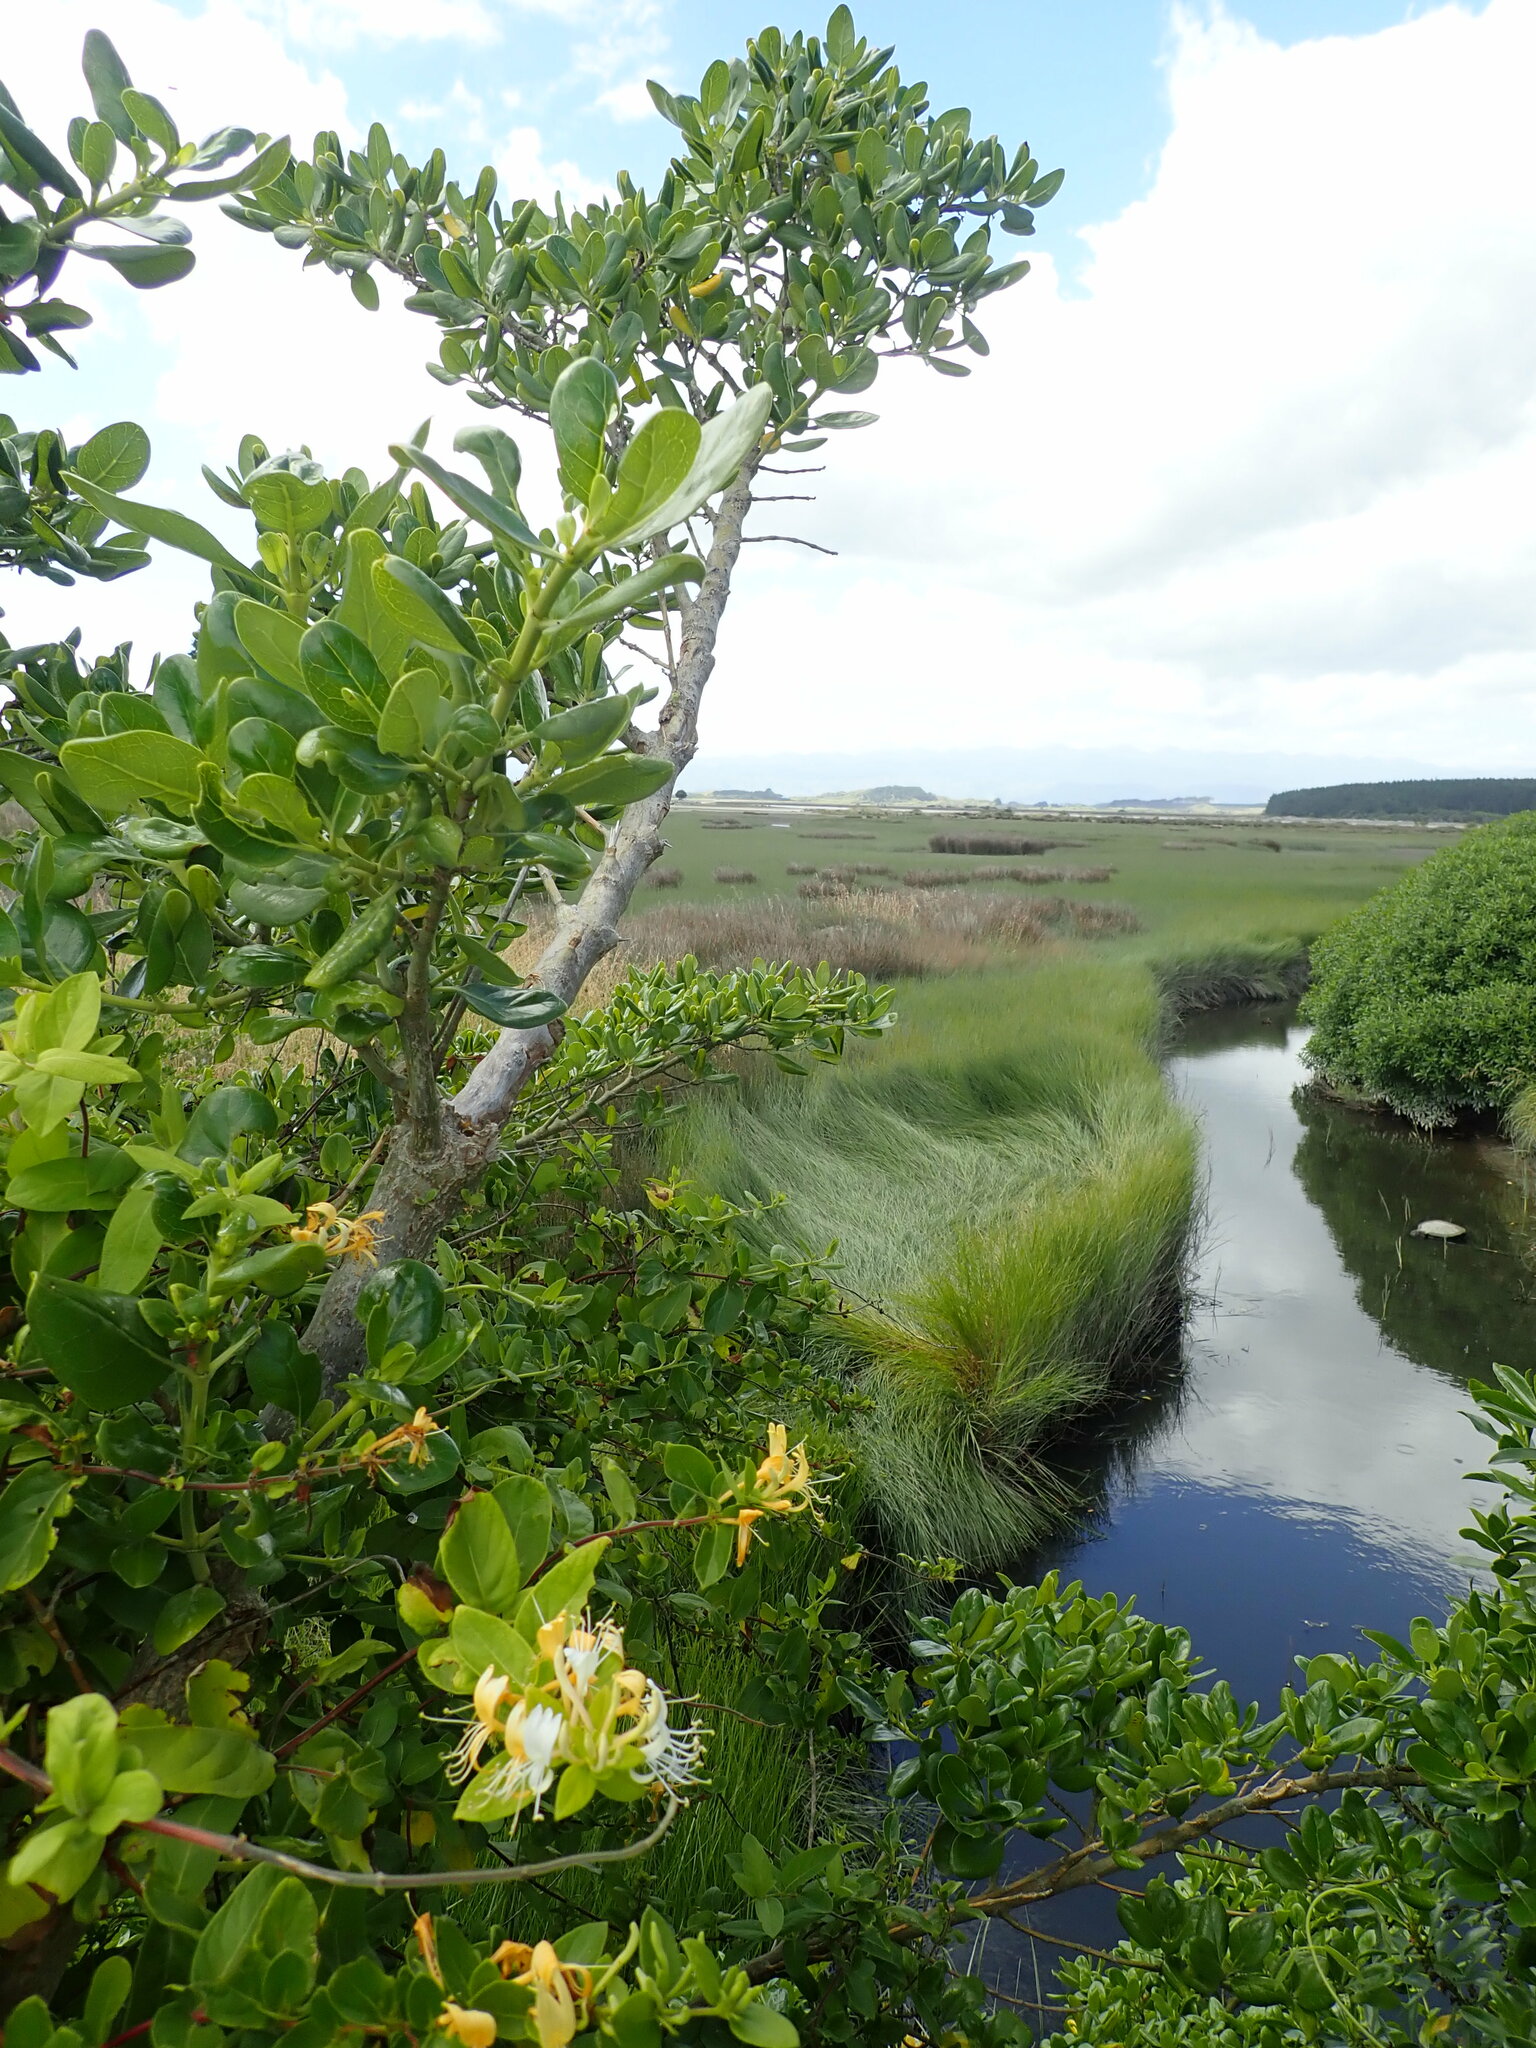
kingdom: Plantae
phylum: Tracheophyta
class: Magnoliopsida
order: Dipsacales
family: Caprifoliaceae
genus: Lonicera
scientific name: Lonicera japonica
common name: Japanese honeysuckle
